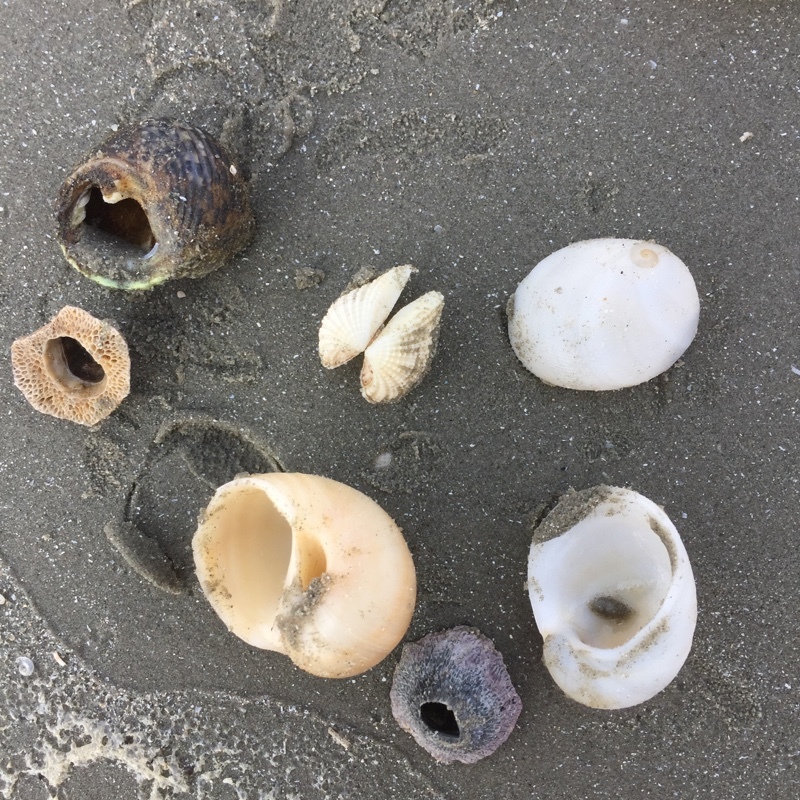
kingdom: Animalia
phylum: Arthropoda
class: Maxillopoda
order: Sessilia
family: Tetraclitidae
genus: Tetraclita
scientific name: Tetraclita japonica
